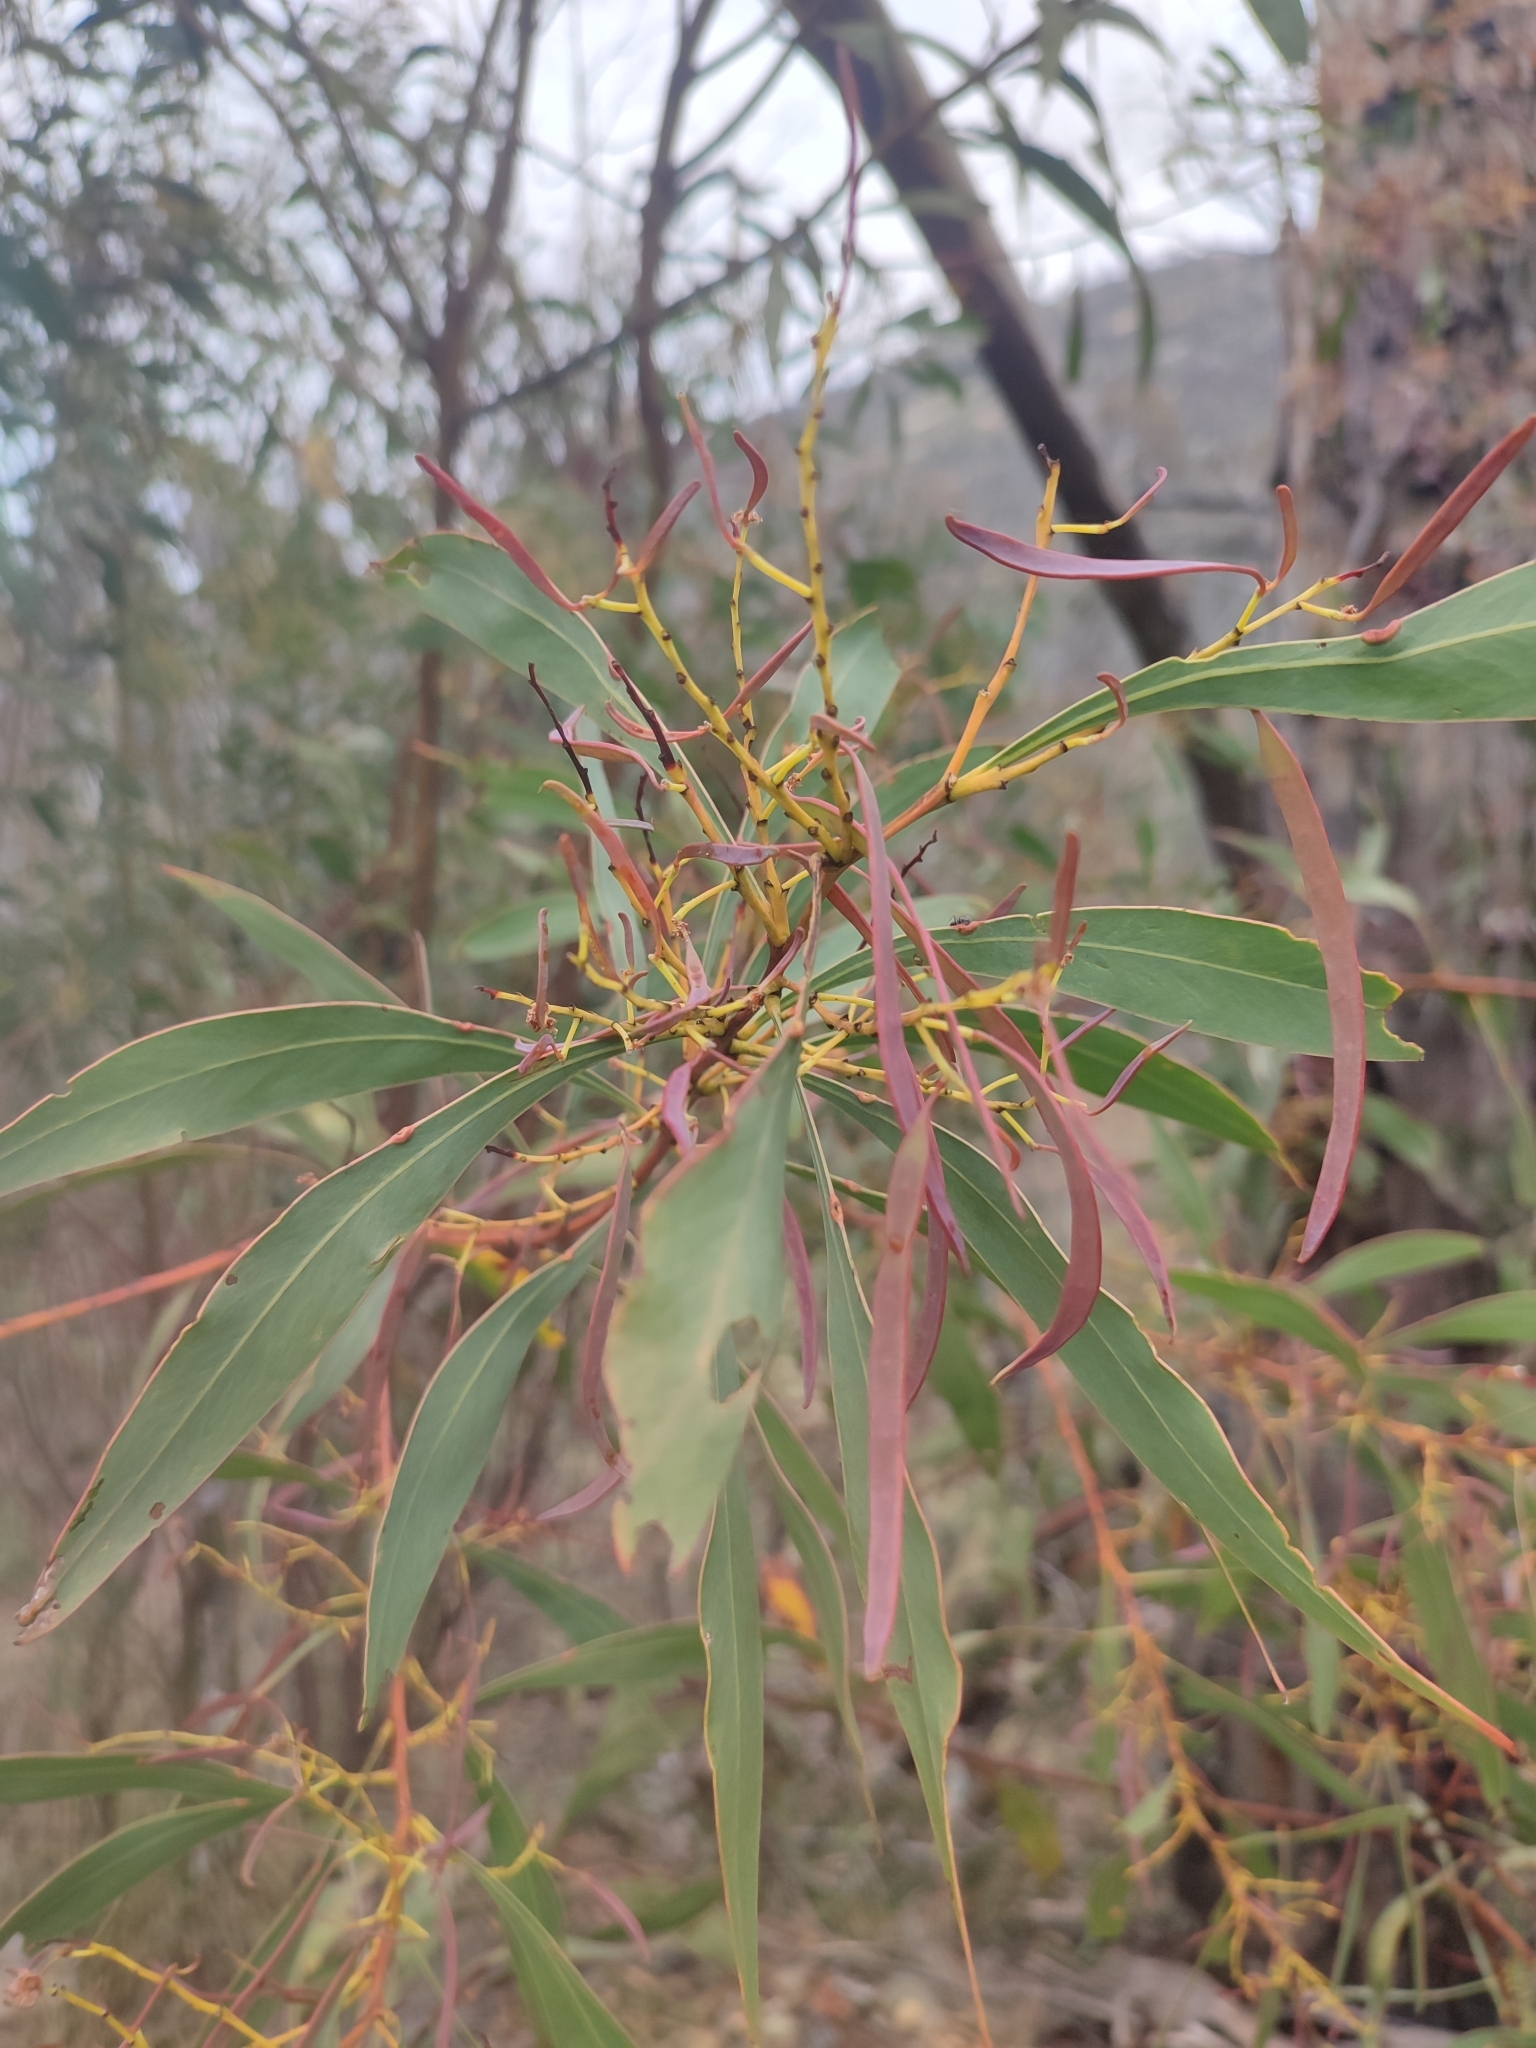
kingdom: Plantae
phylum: Tracheophyta
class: Magnoliopsida
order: Fabales
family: Fabaceae
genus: Acacia
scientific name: Acacia rubida
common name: Red leaf wattle
